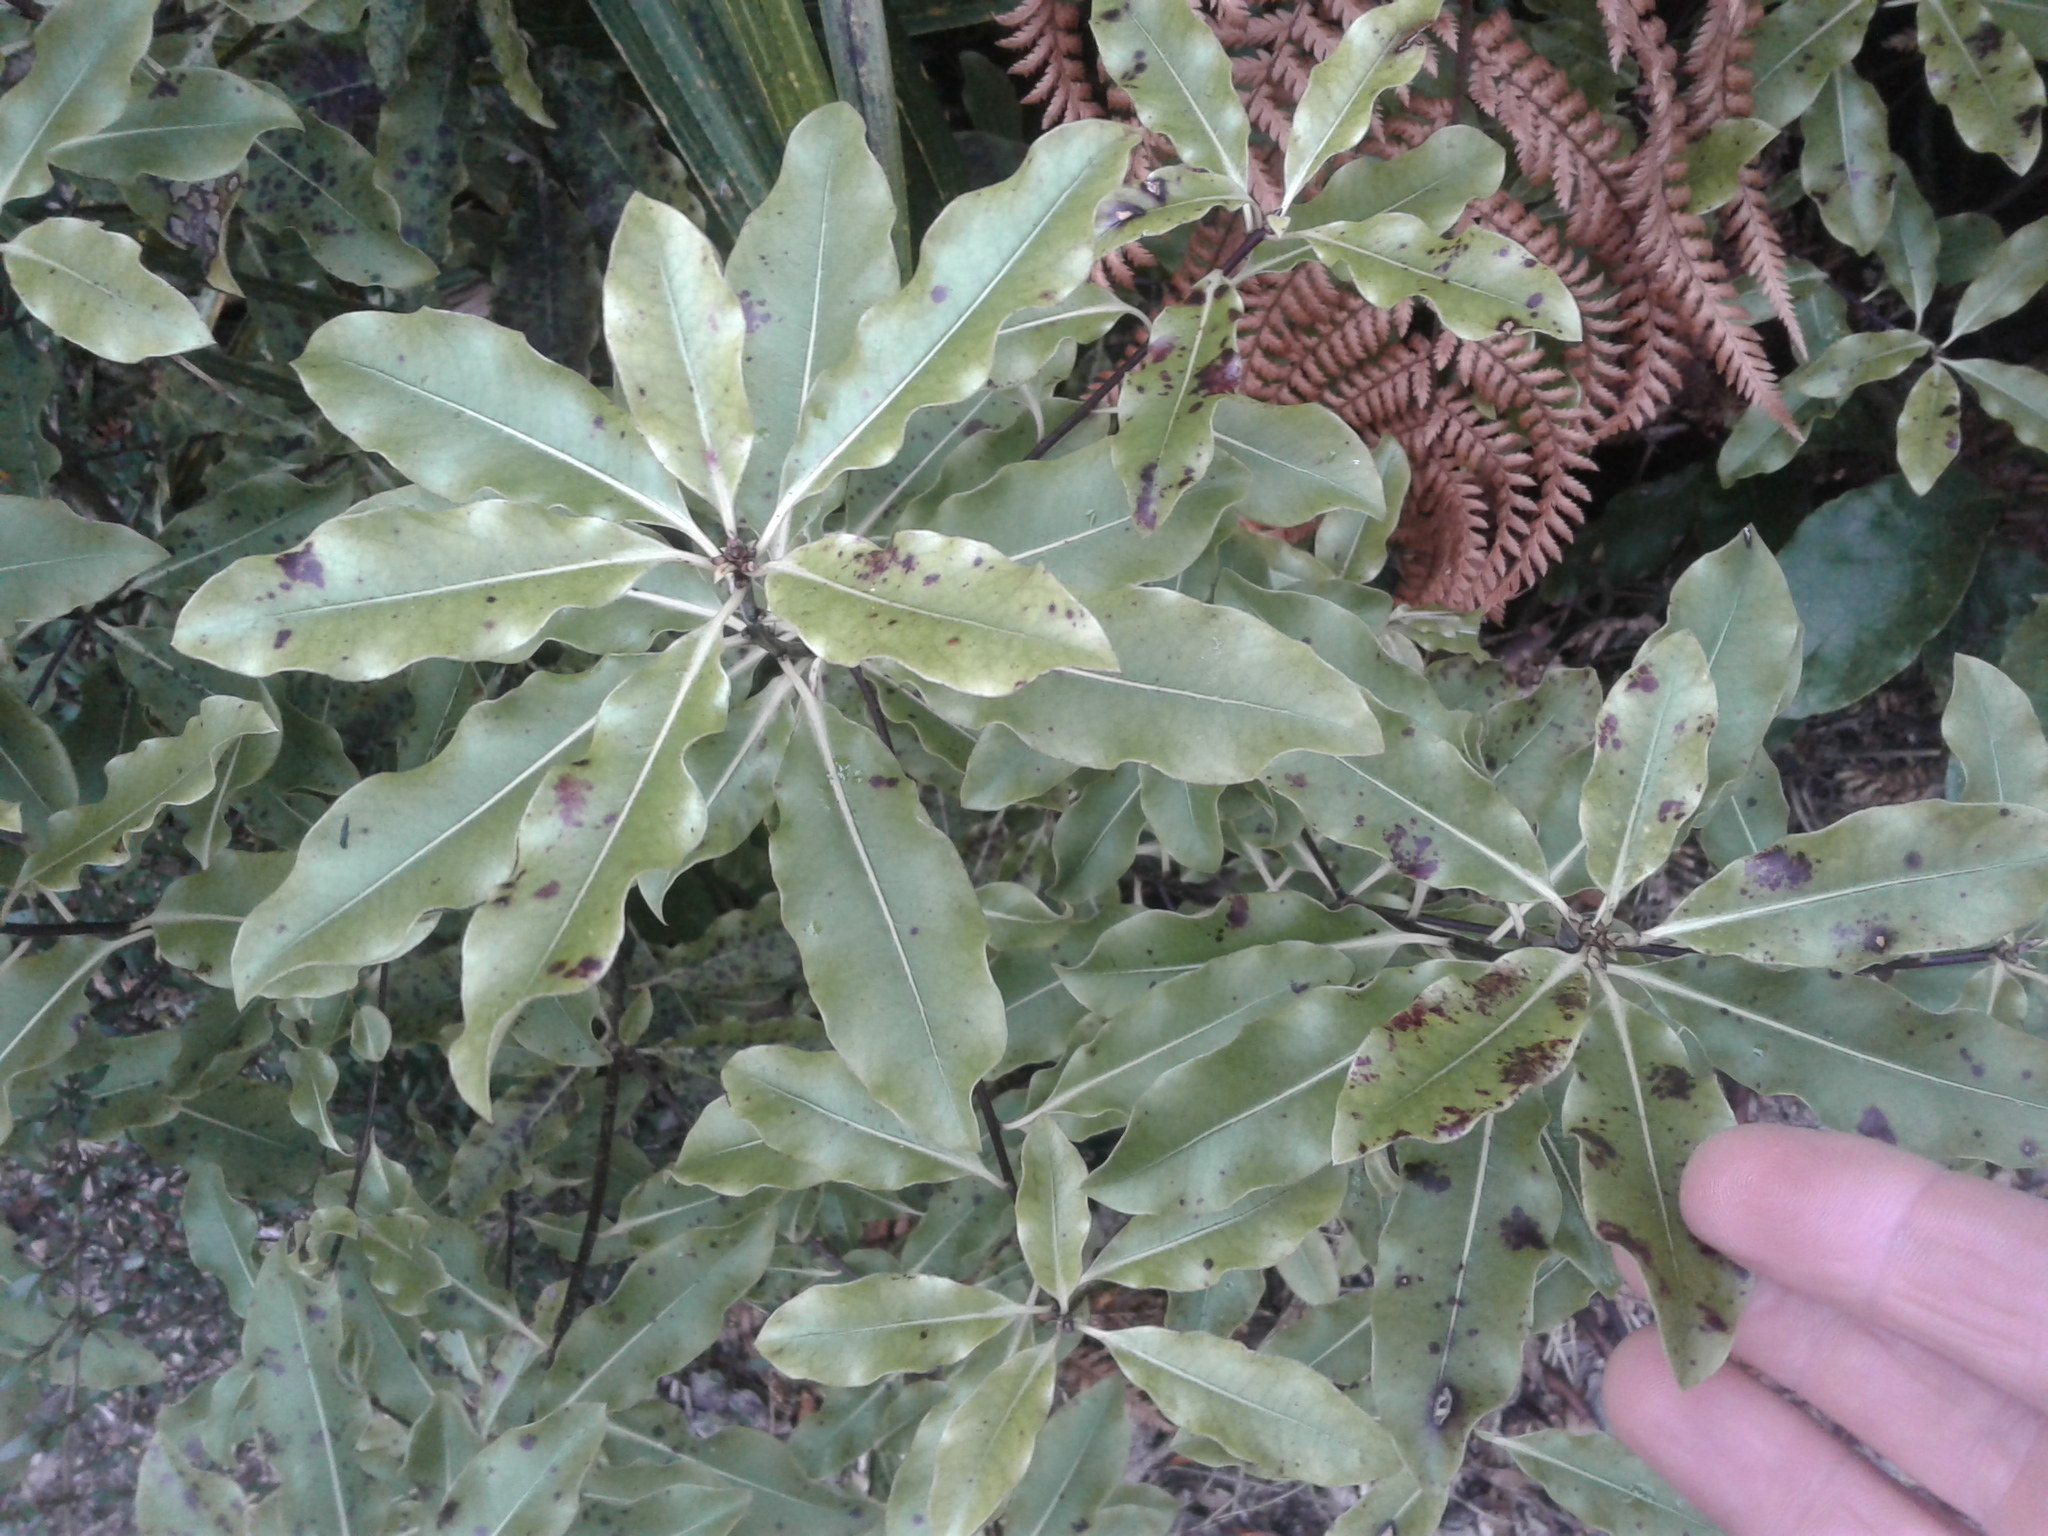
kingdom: Plantae
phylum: Tracheophyta
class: Magnoliopsida
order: Apiales
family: Pittosporaceae
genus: Pittosporum
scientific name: Pittosporum eugenioides
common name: Lemonwood
